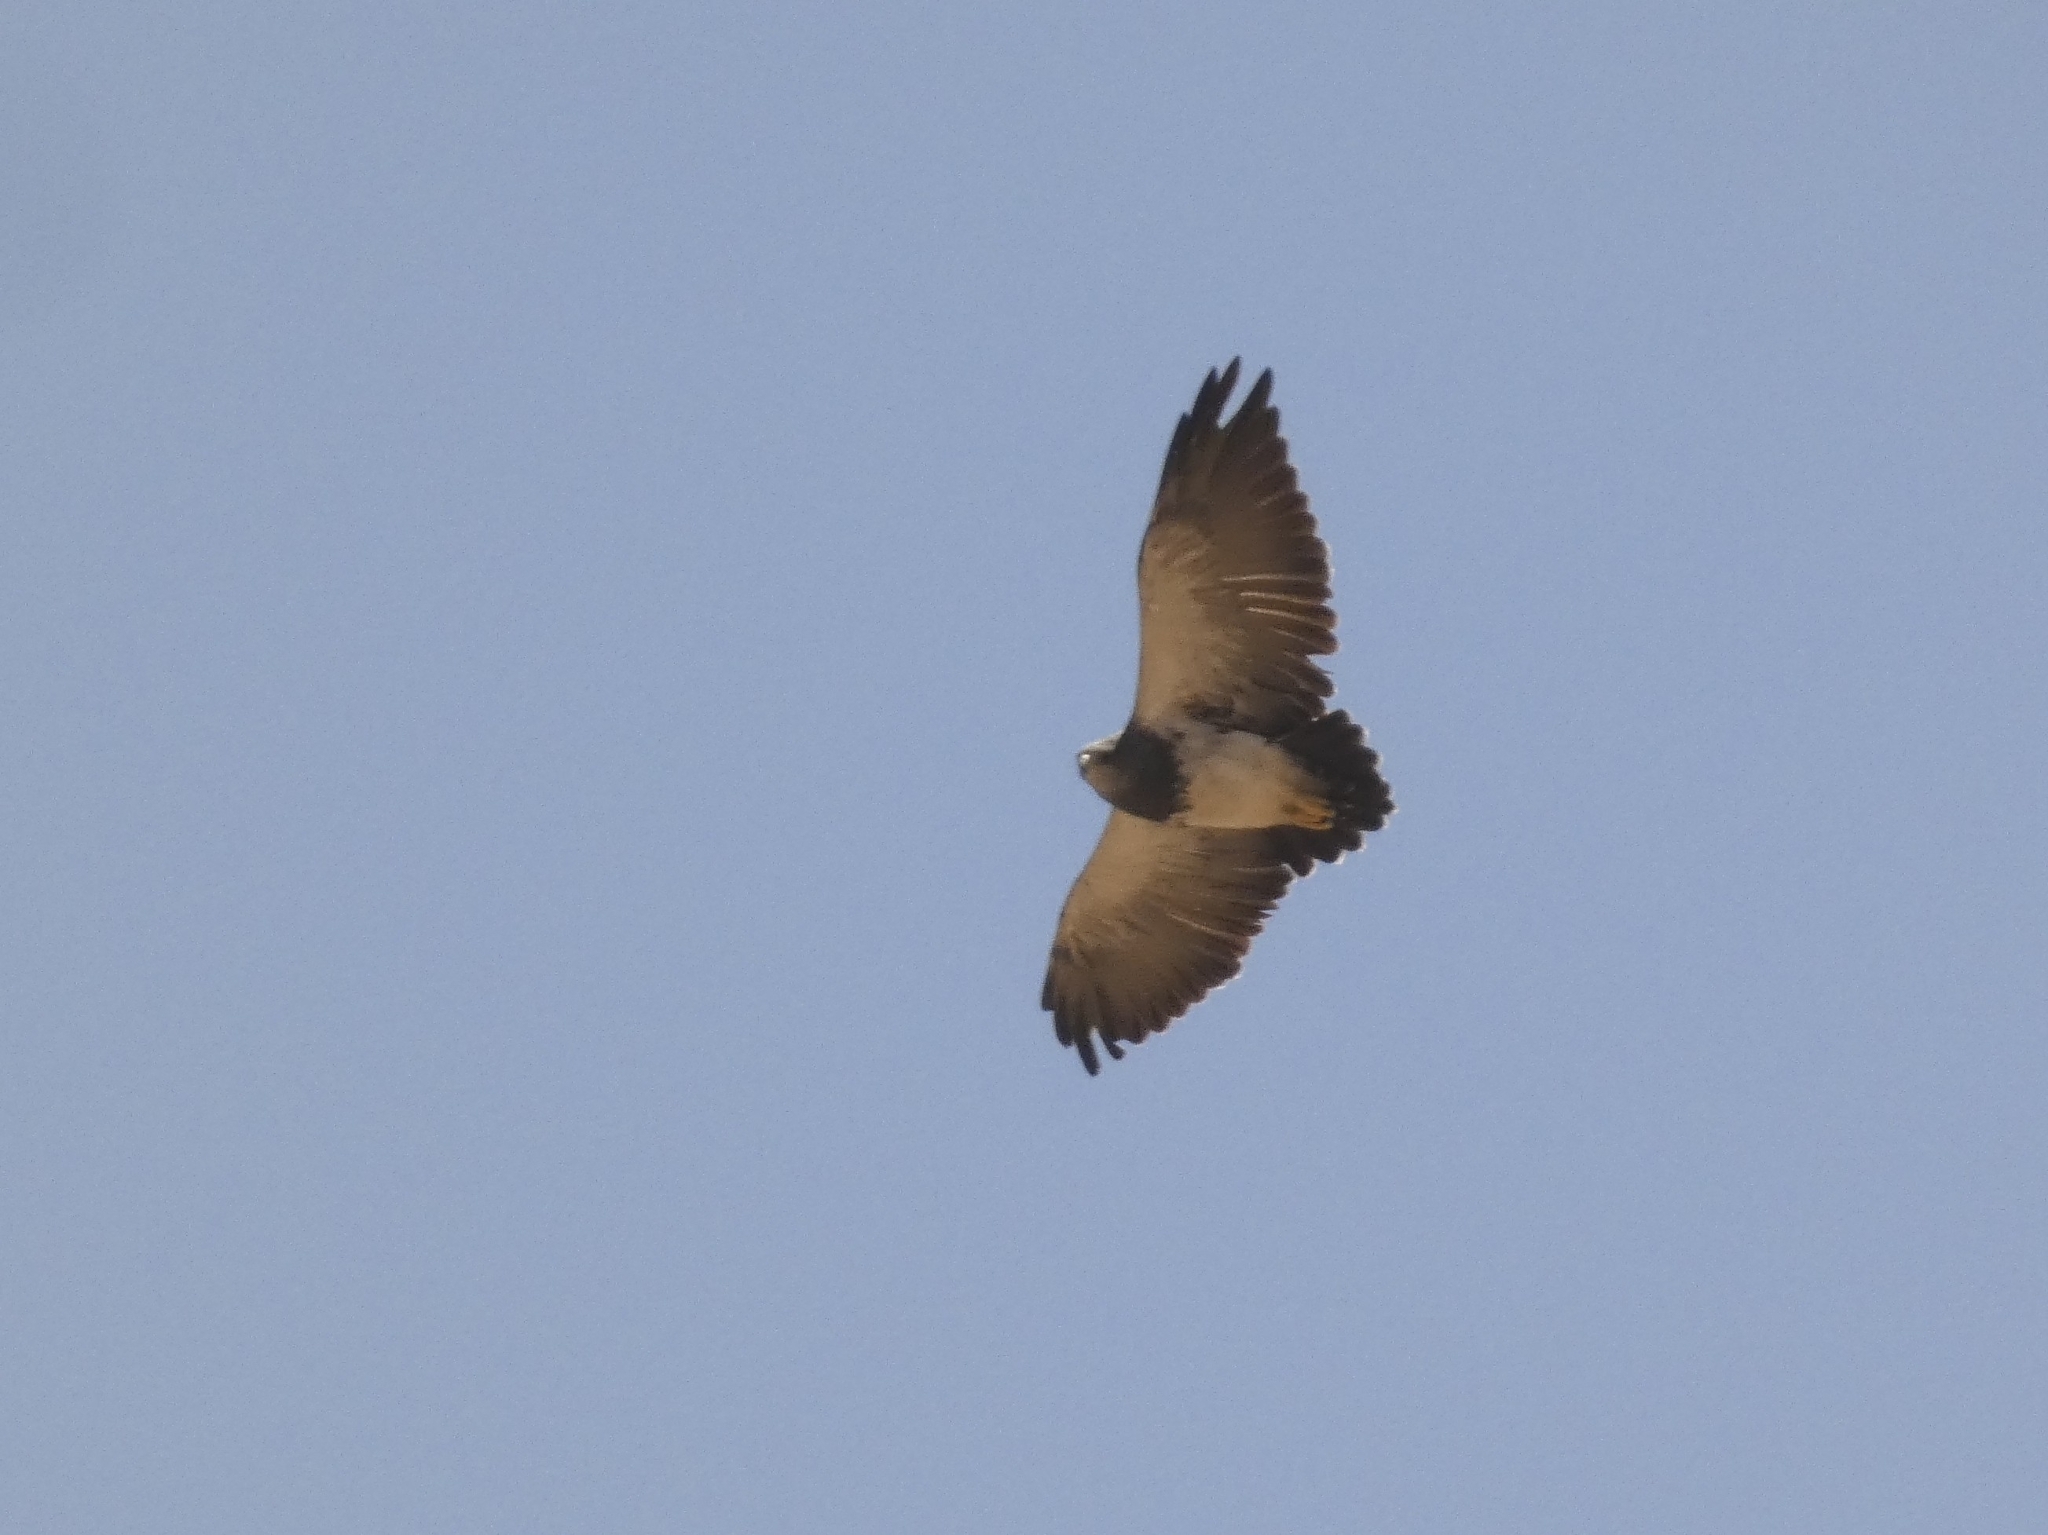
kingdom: Animalia
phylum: Chordata
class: Aves
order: Accipitriformes
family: Accipitridae
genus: Geranoaetus
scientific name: Geranoaetus melanoleucus
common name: Black-chested buzzard-eagle
